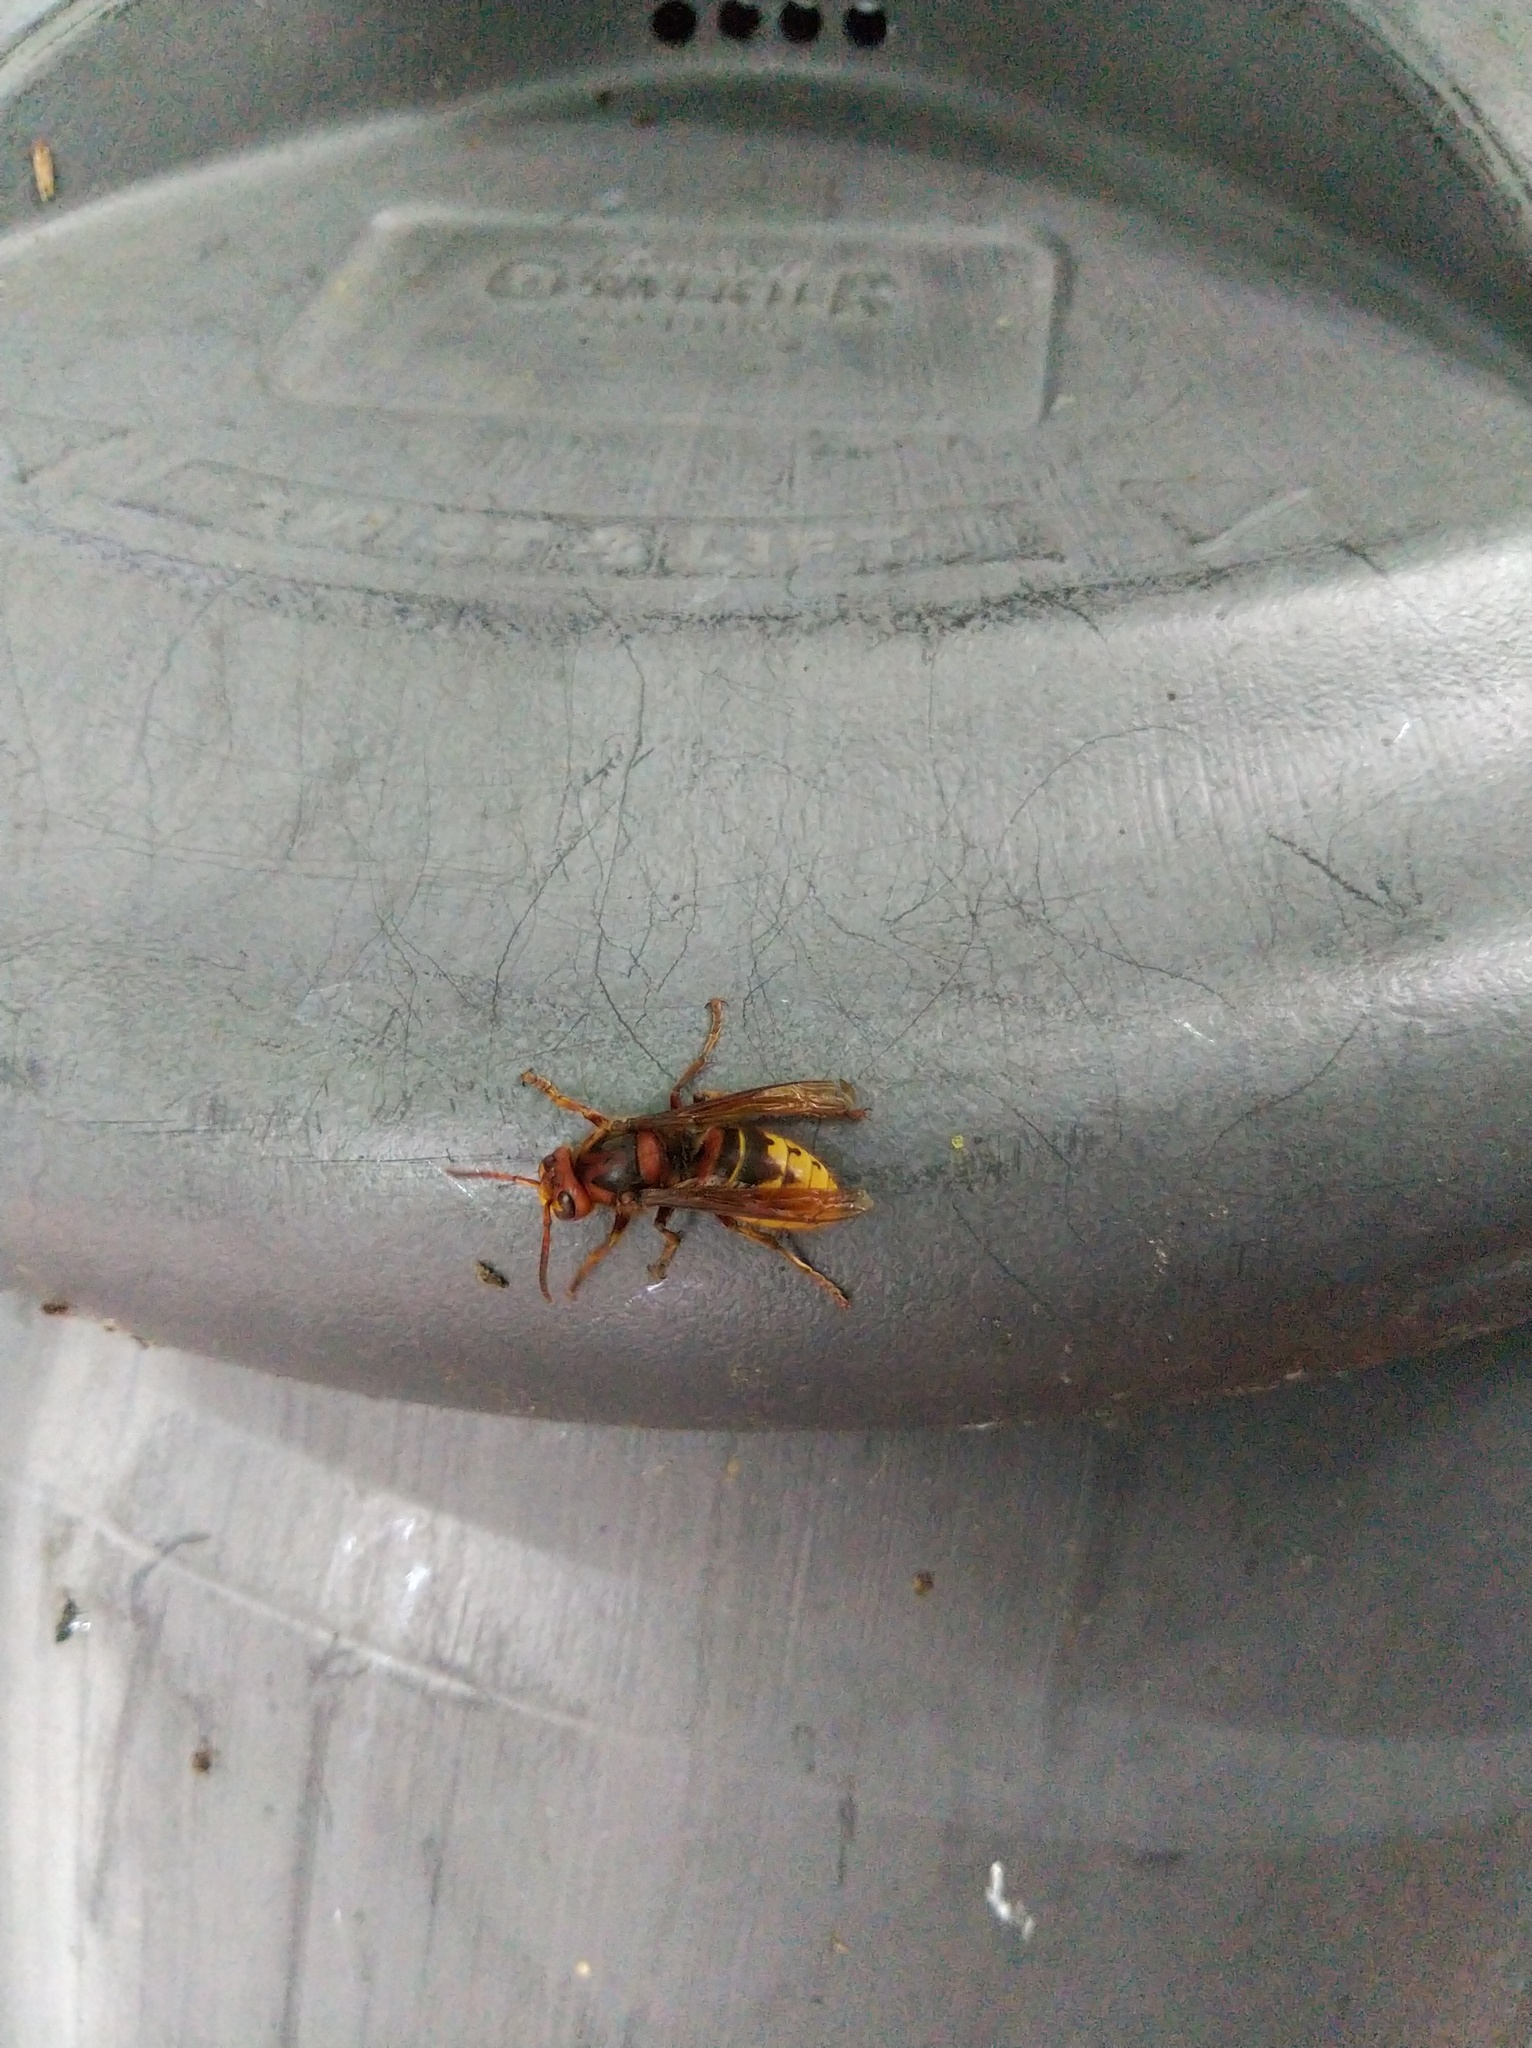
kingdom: Animalia
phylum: Arthropoda
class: Insecta
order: Hymenoptera
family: Vespidae
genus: Vespa
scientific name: Vespa crabro
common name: Hornet
